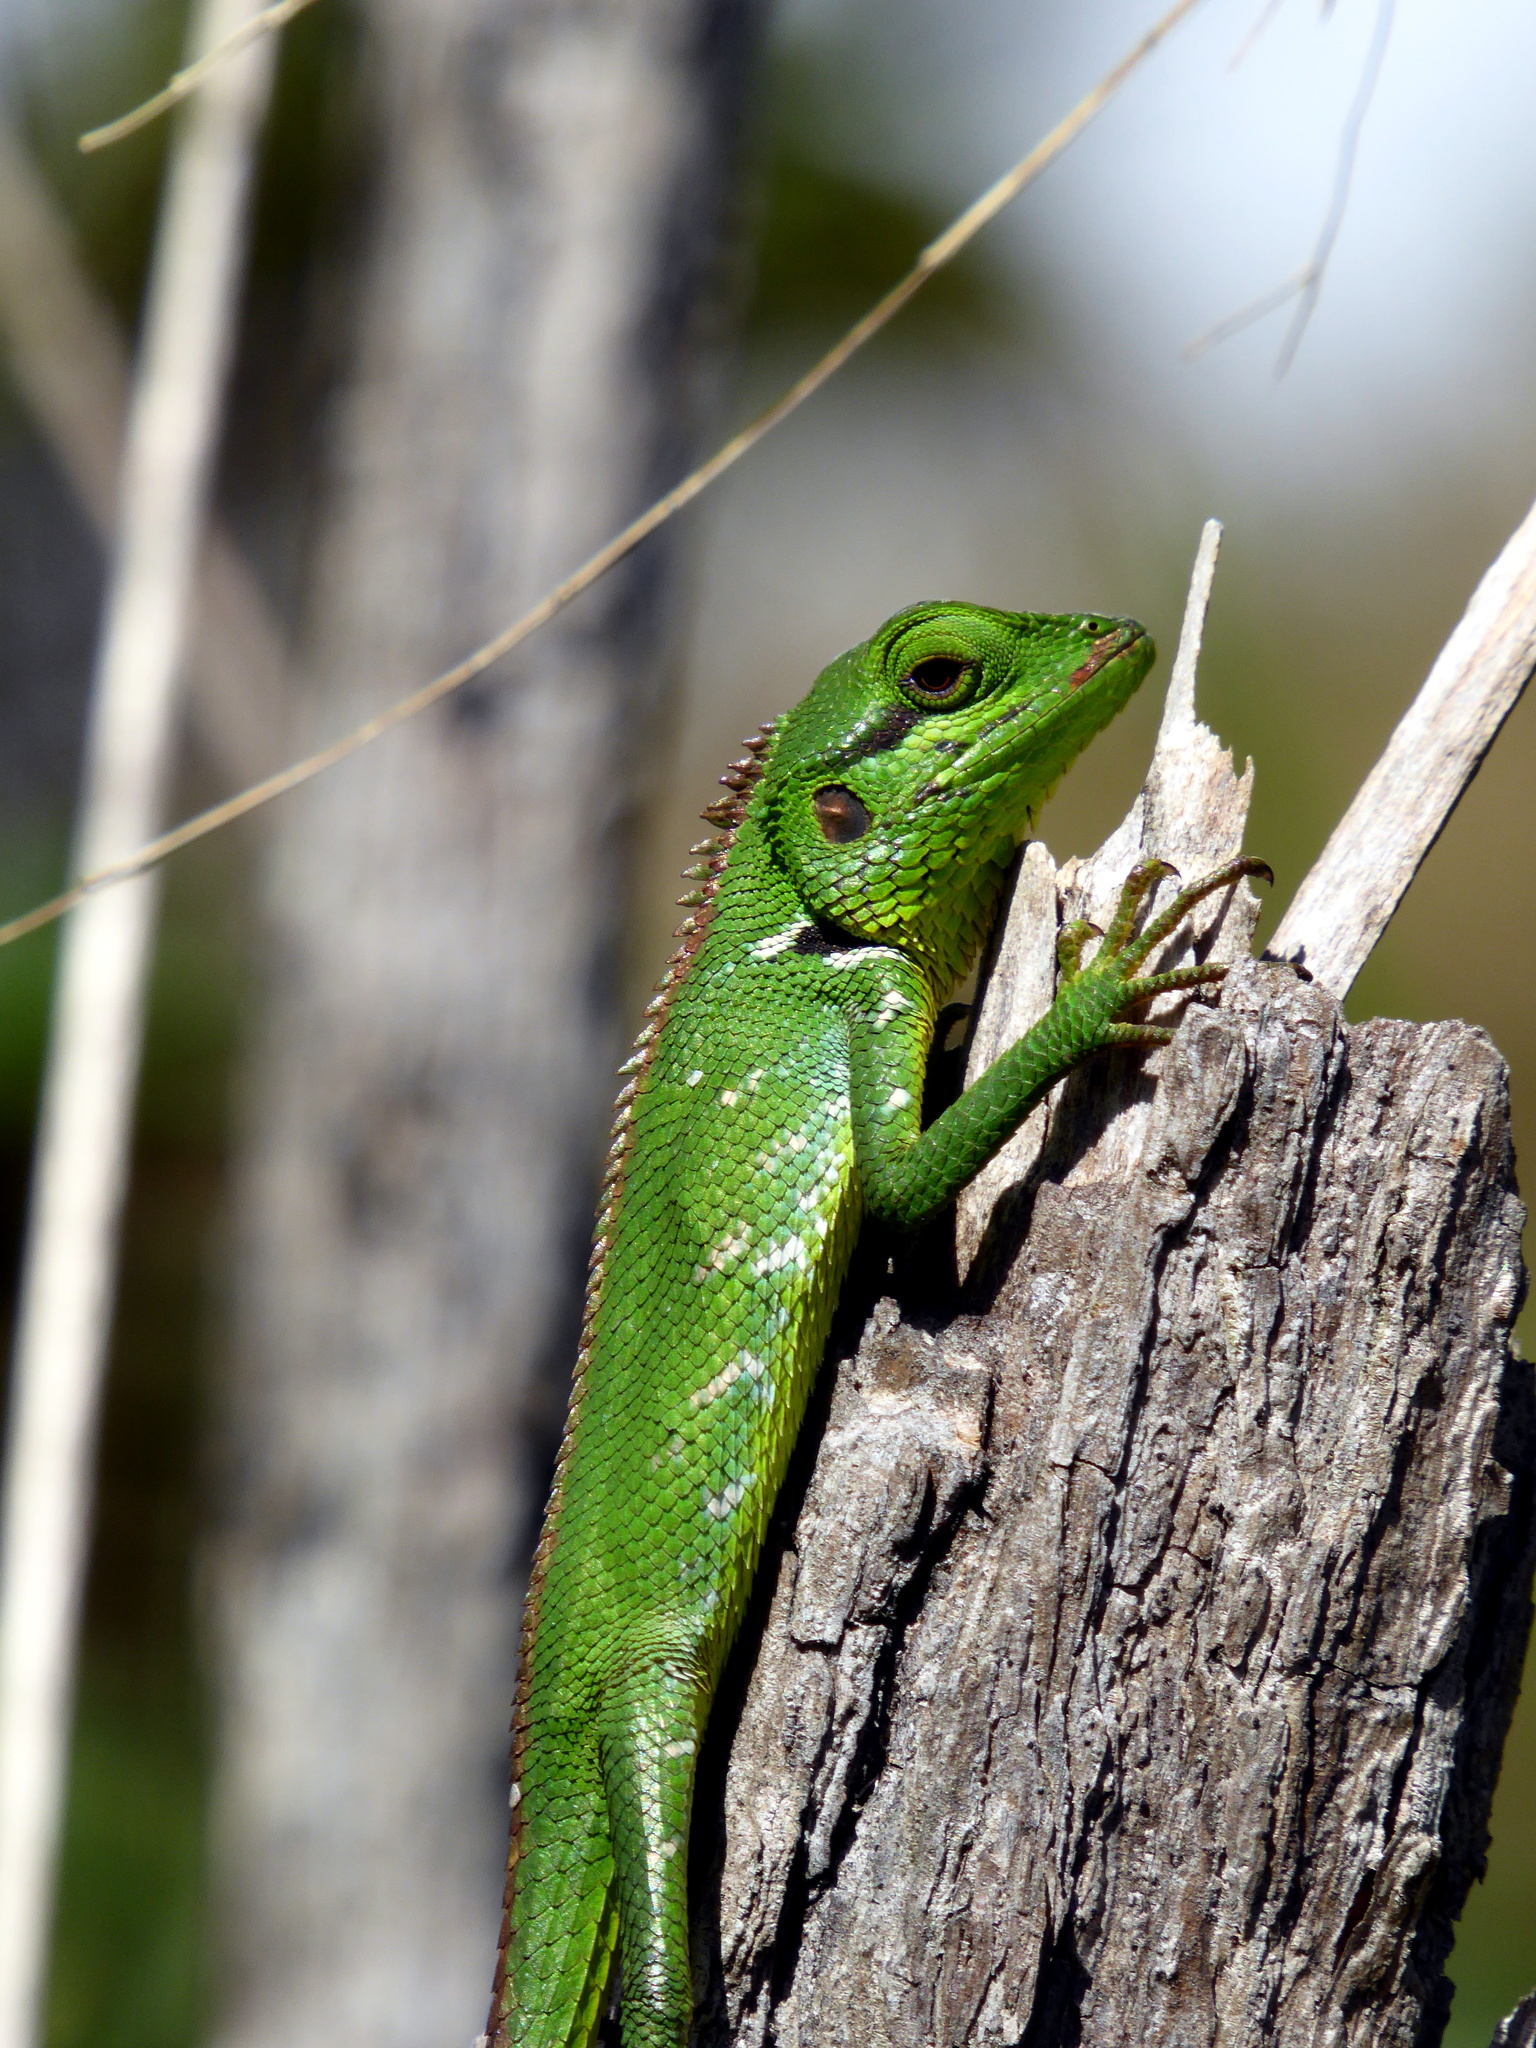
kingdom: Animalia
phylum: Chordata
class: Squamata
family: Agamidae
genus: Calotes
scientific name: Calotes nigrilabris
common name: Black-cheek lizard
